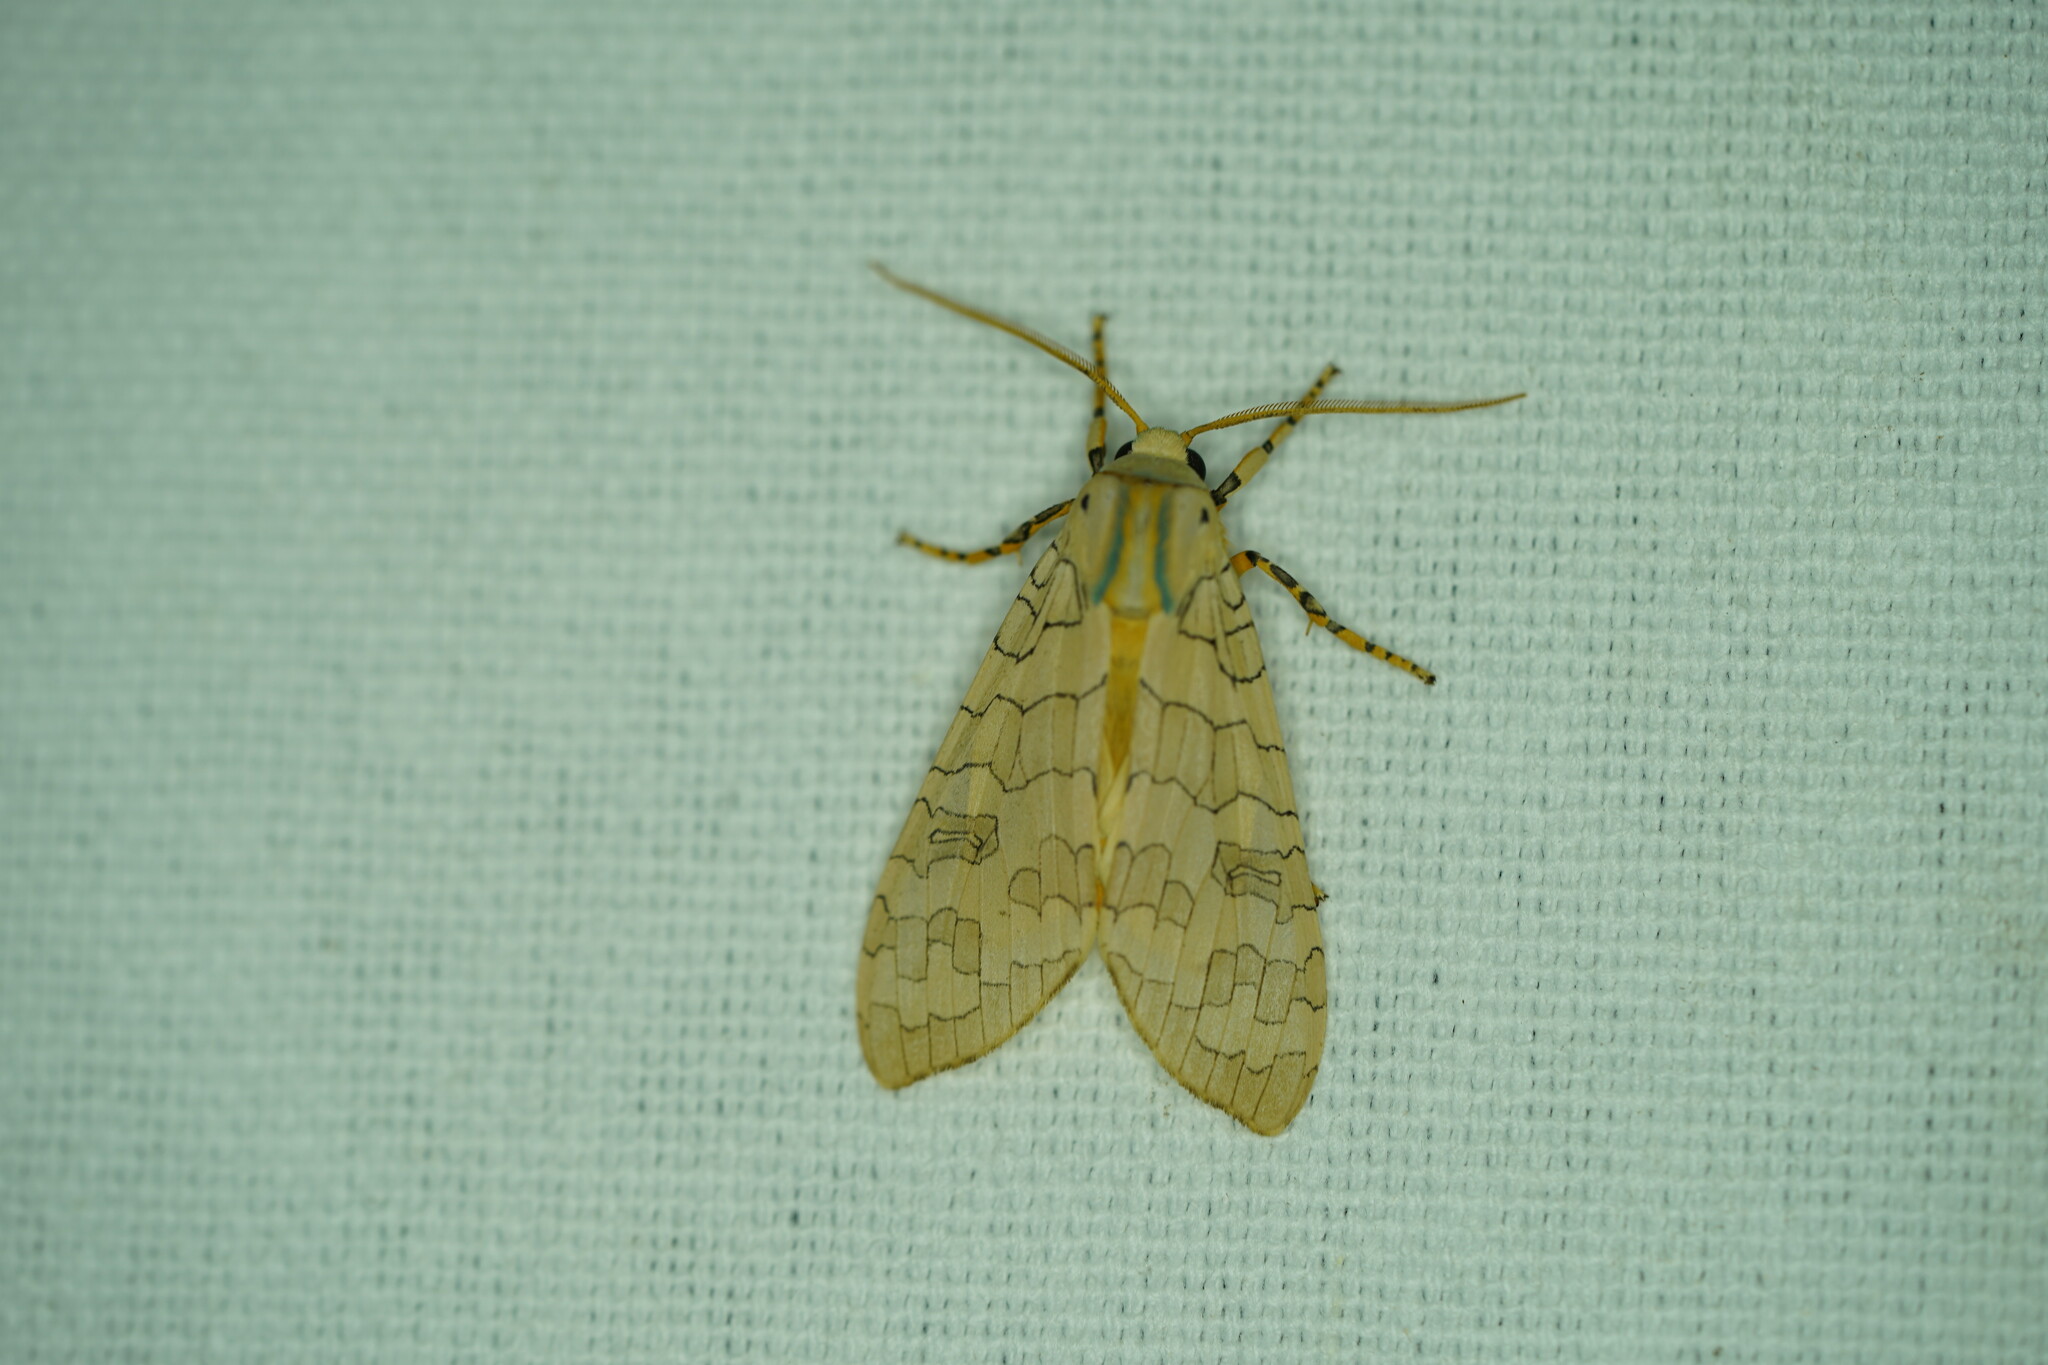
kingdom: Animalia
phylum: Arthropoda
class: Insecta
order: Lepidoptera
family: Erebidae
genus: Halysidota
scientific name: Halysidota
